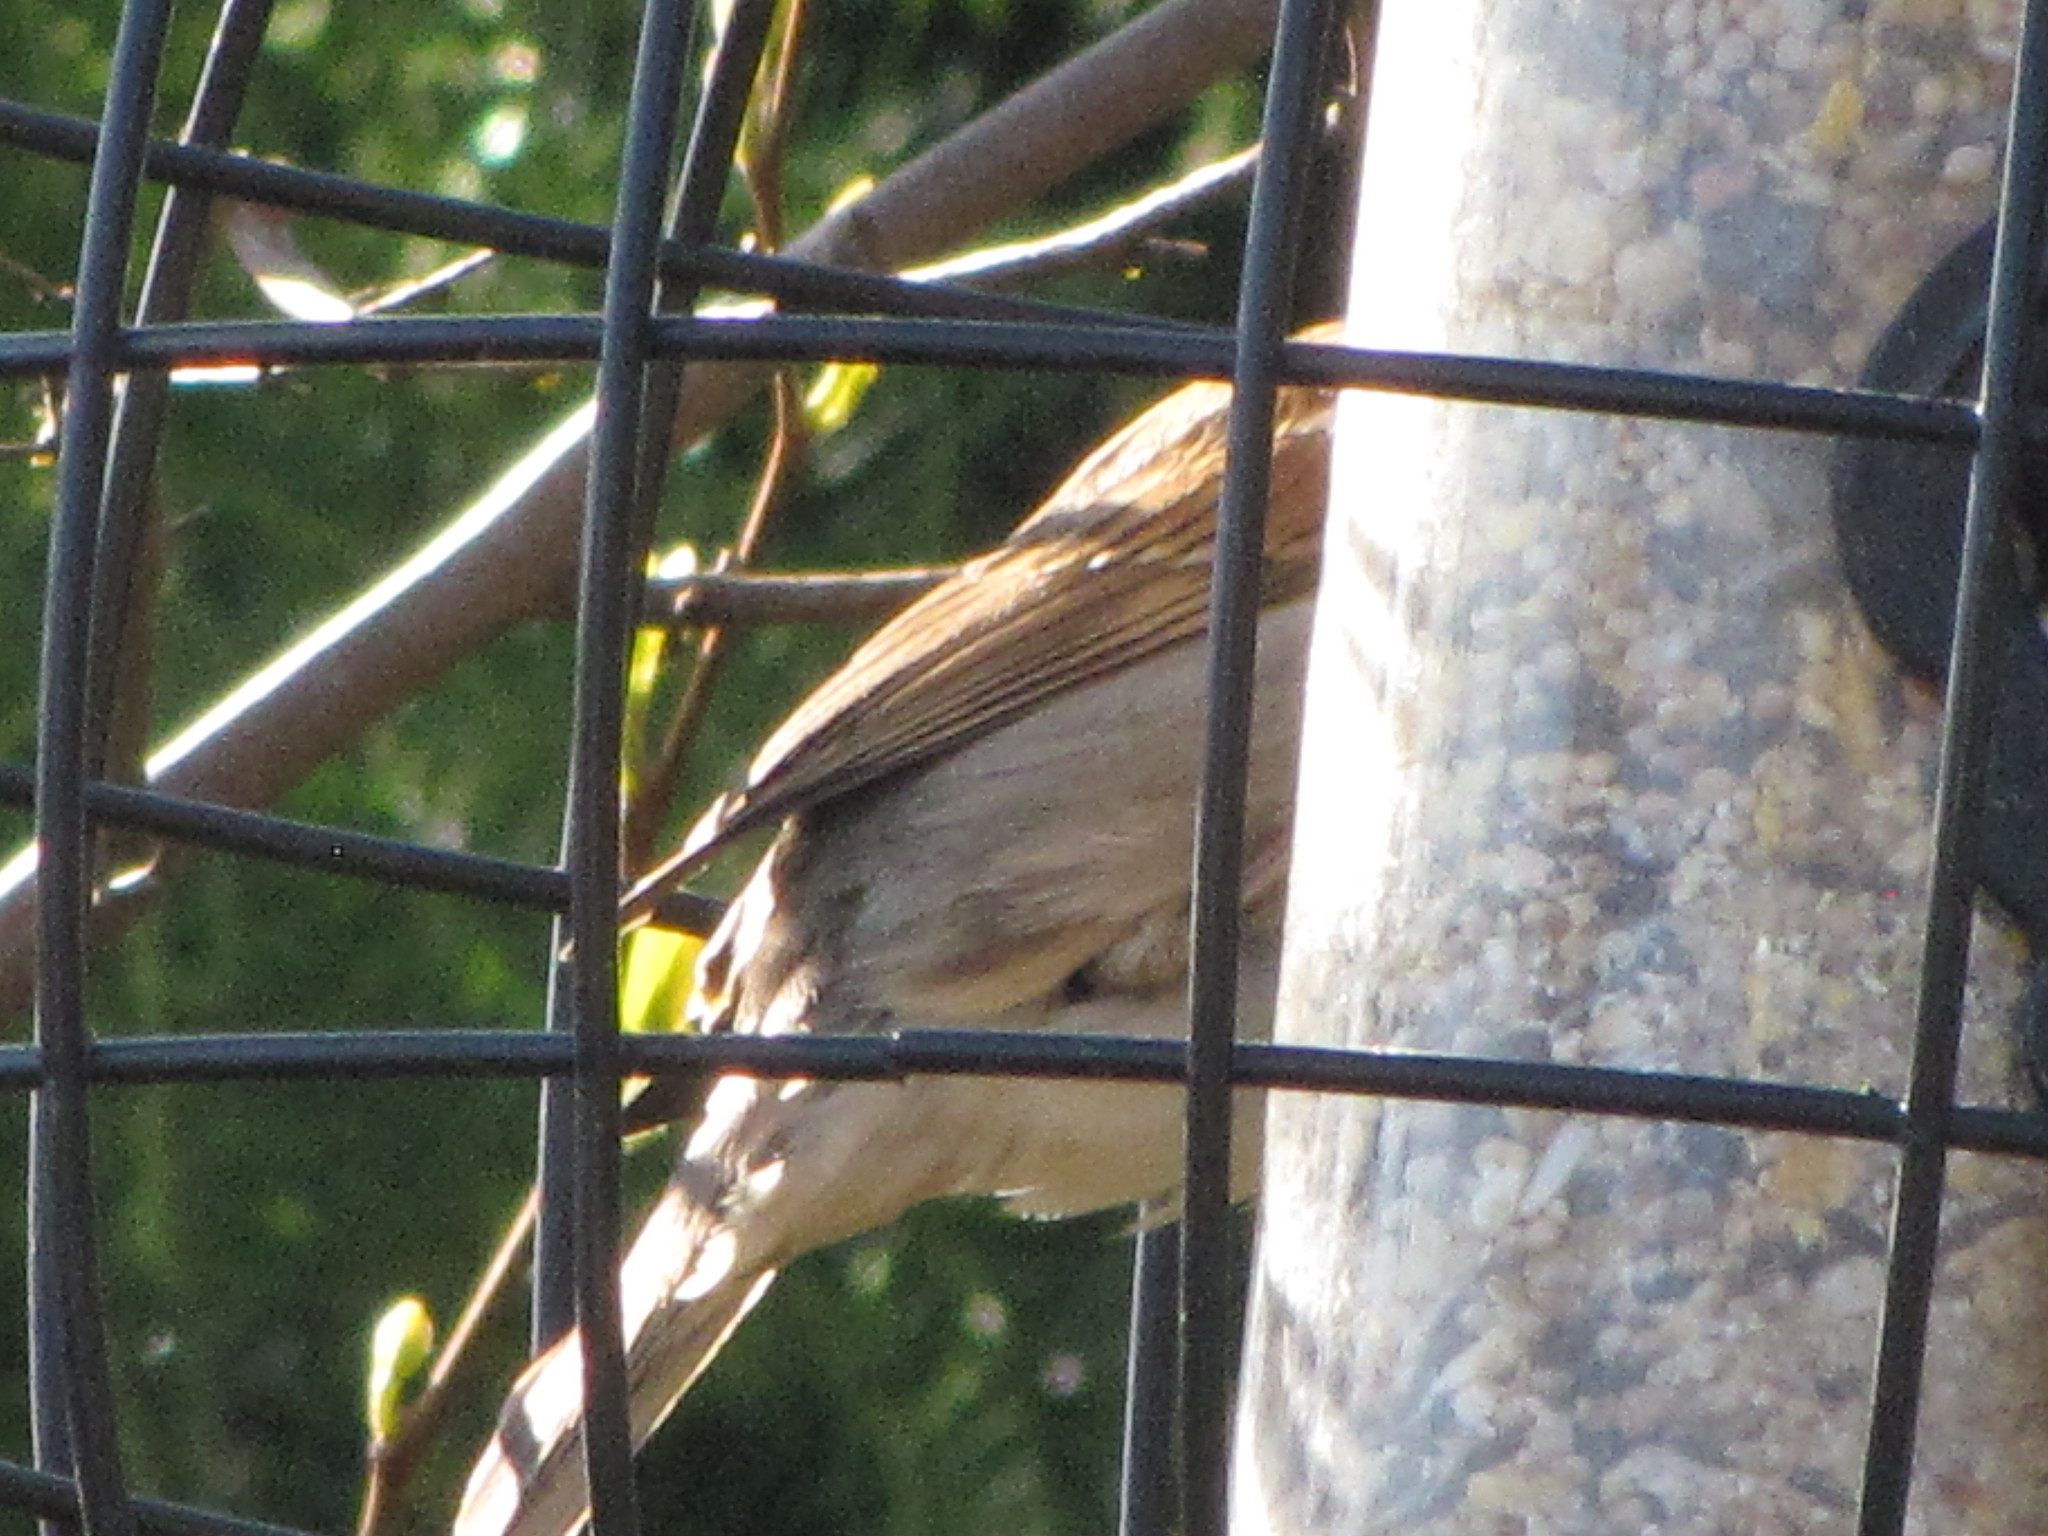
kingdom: Animalia
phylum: Chordata
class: Aves
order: Passeriformes
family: Passeridae
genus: Passer
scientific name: Passer domesticus
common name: House sparrow
